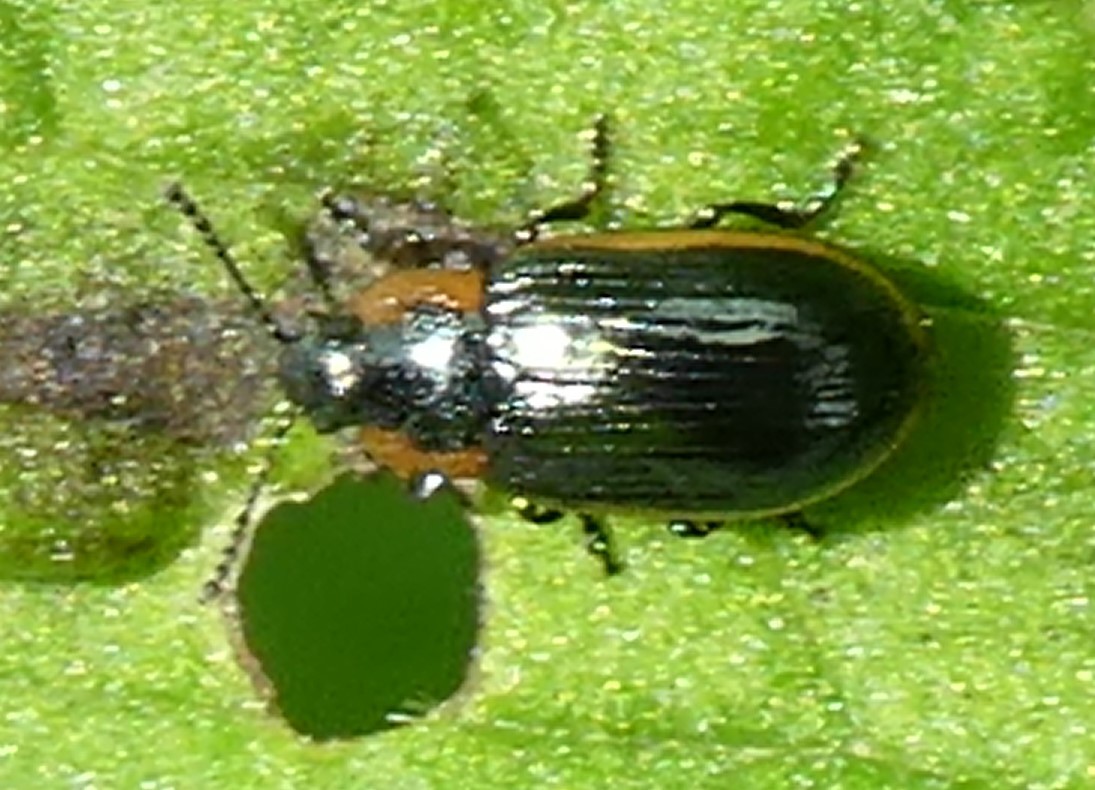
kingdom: Animalia
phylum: Arthropoda
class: Insecta
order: Coleoptera
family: Chrysomelidae
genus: Prasocuris
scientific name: Prasocuris marginella
